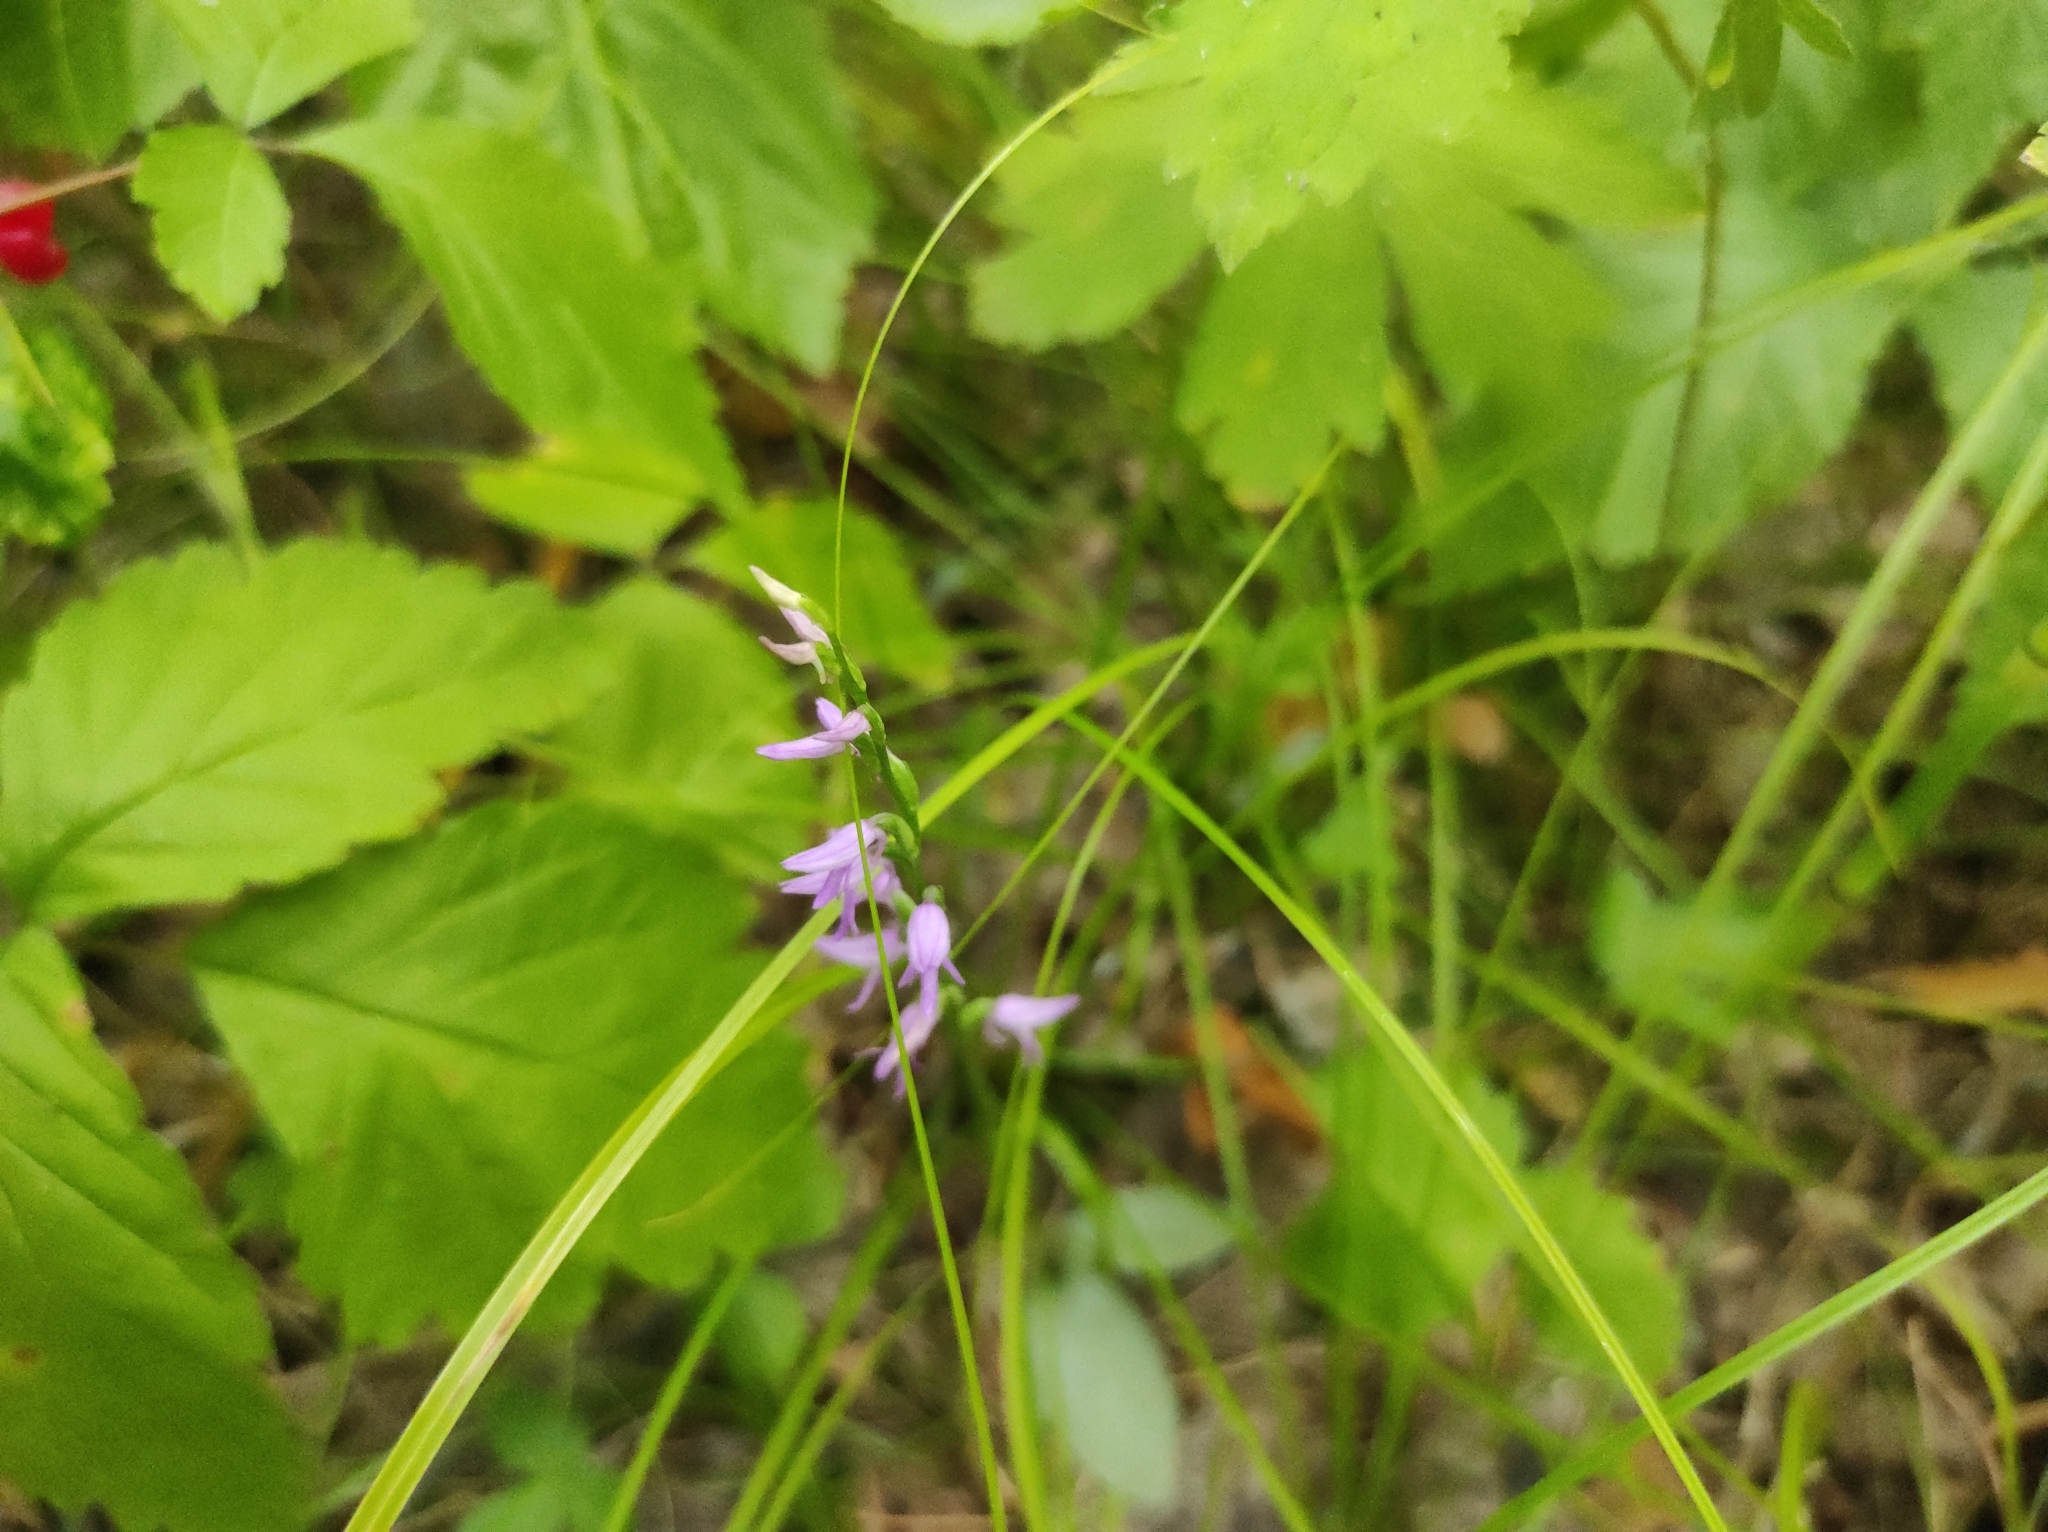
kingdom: Plantae
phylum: Tracheophyta
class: Liliopsida
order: Asparagales
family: Orchidaceae
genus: Hemipilia
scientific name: Hemipilia cucullata
